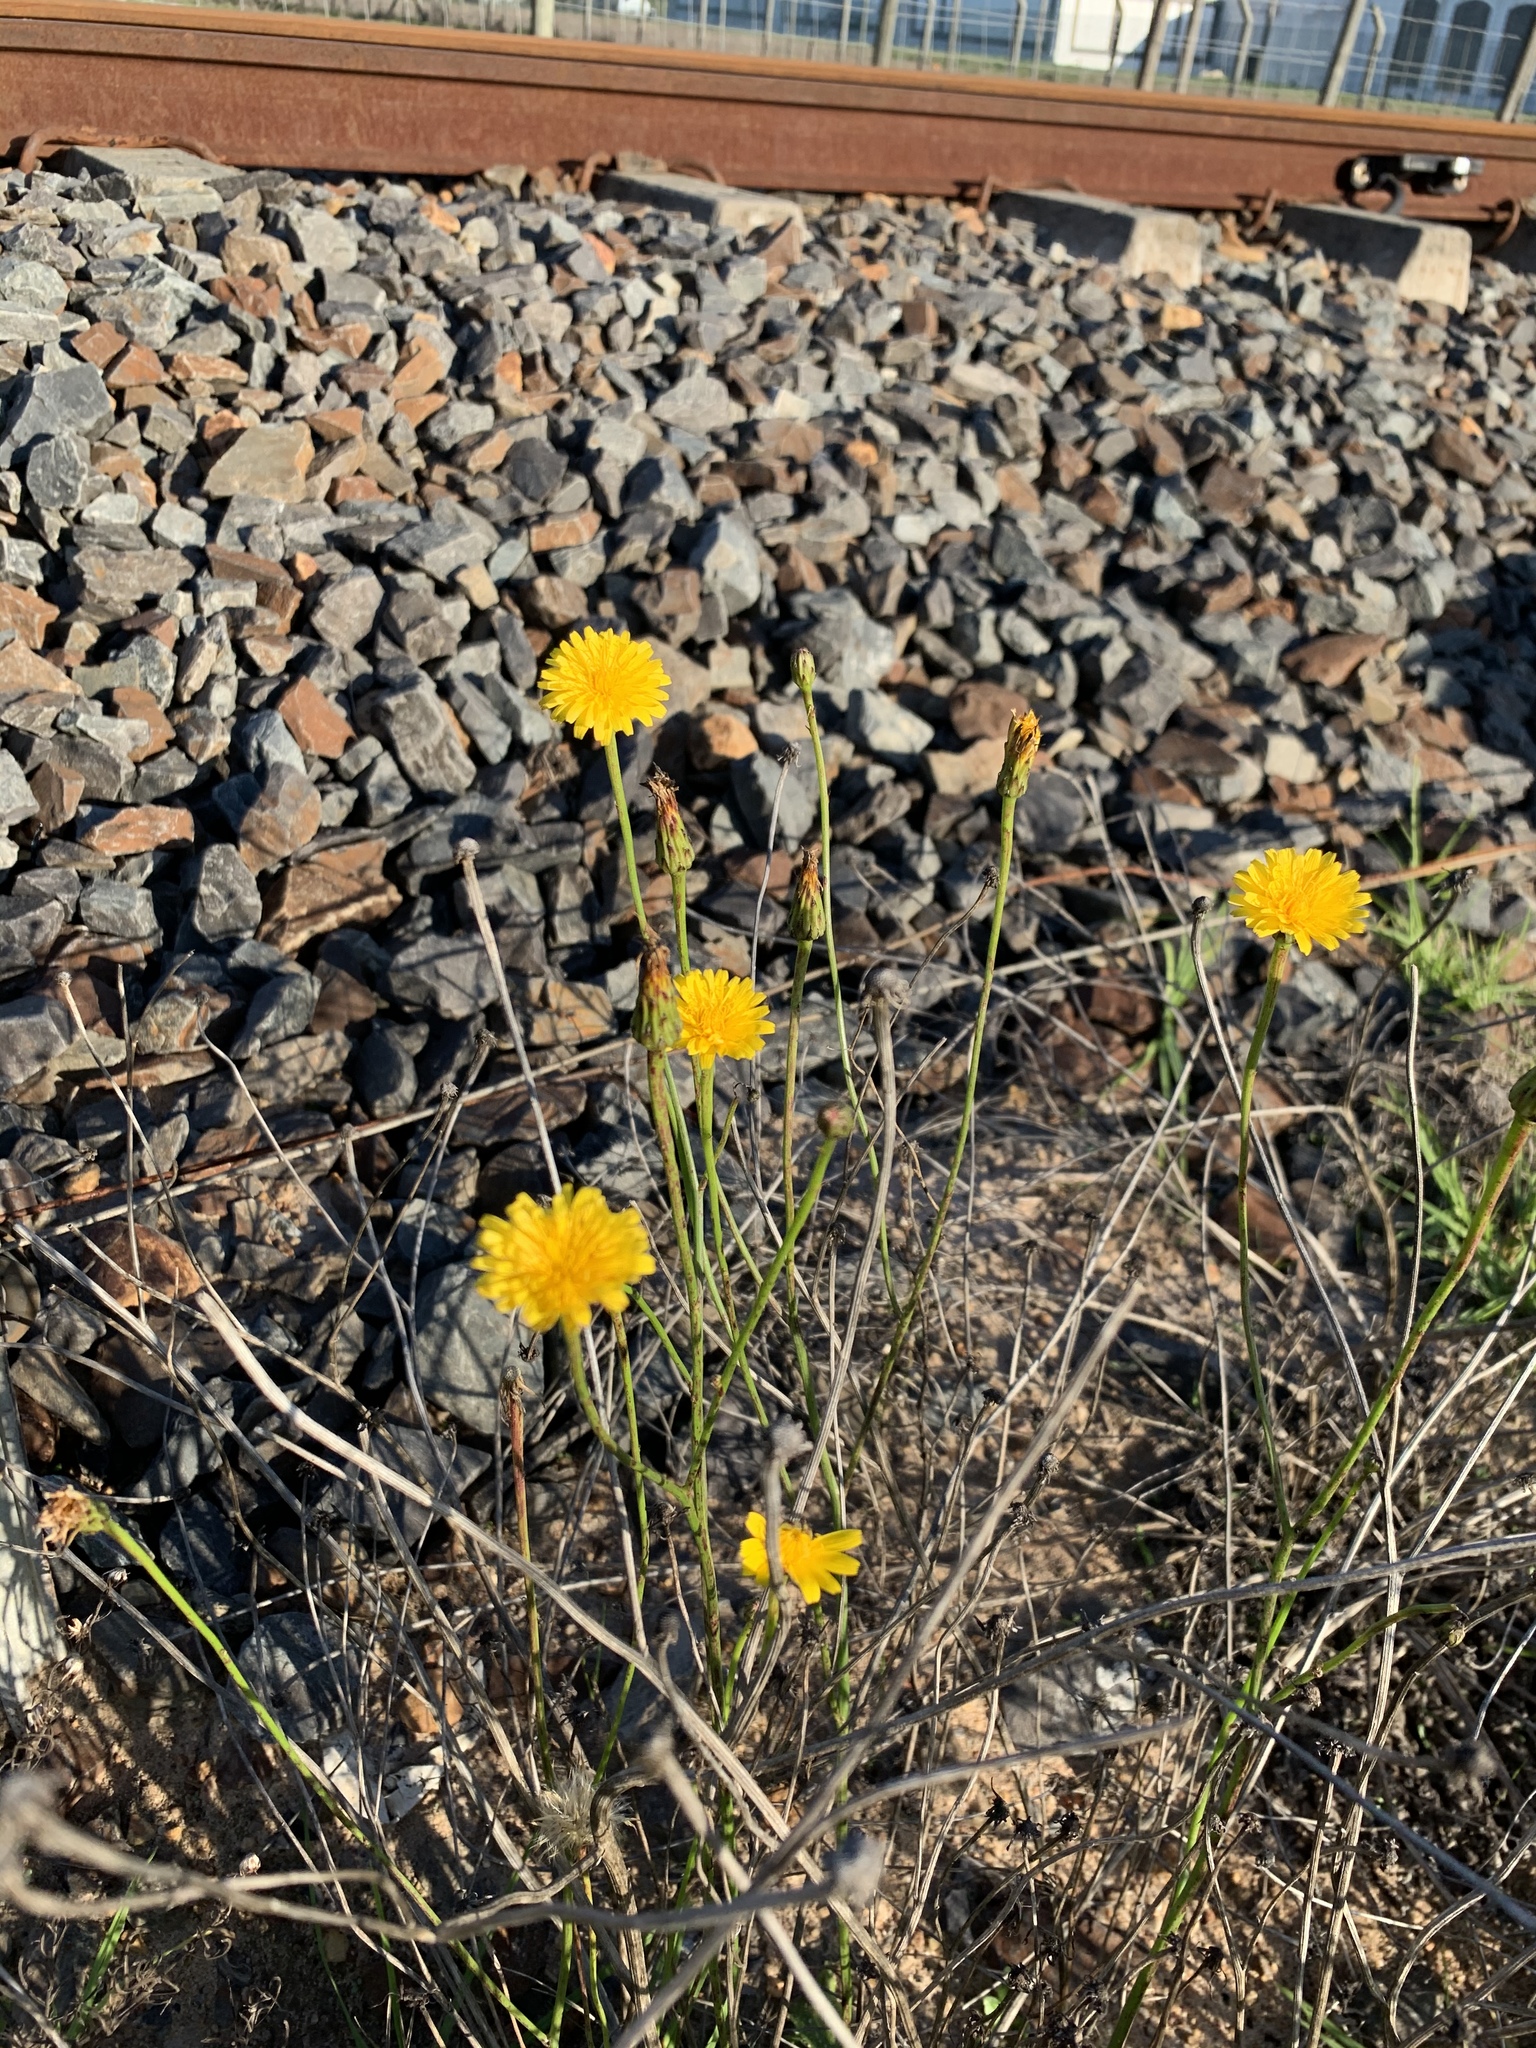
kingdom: Plantae
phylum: Tracheophyta
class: Magnoliopsida
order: Asterales
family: Asteraceae
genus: Hypochaeris
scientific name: Hypochaeris radicata
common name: Flatweed
